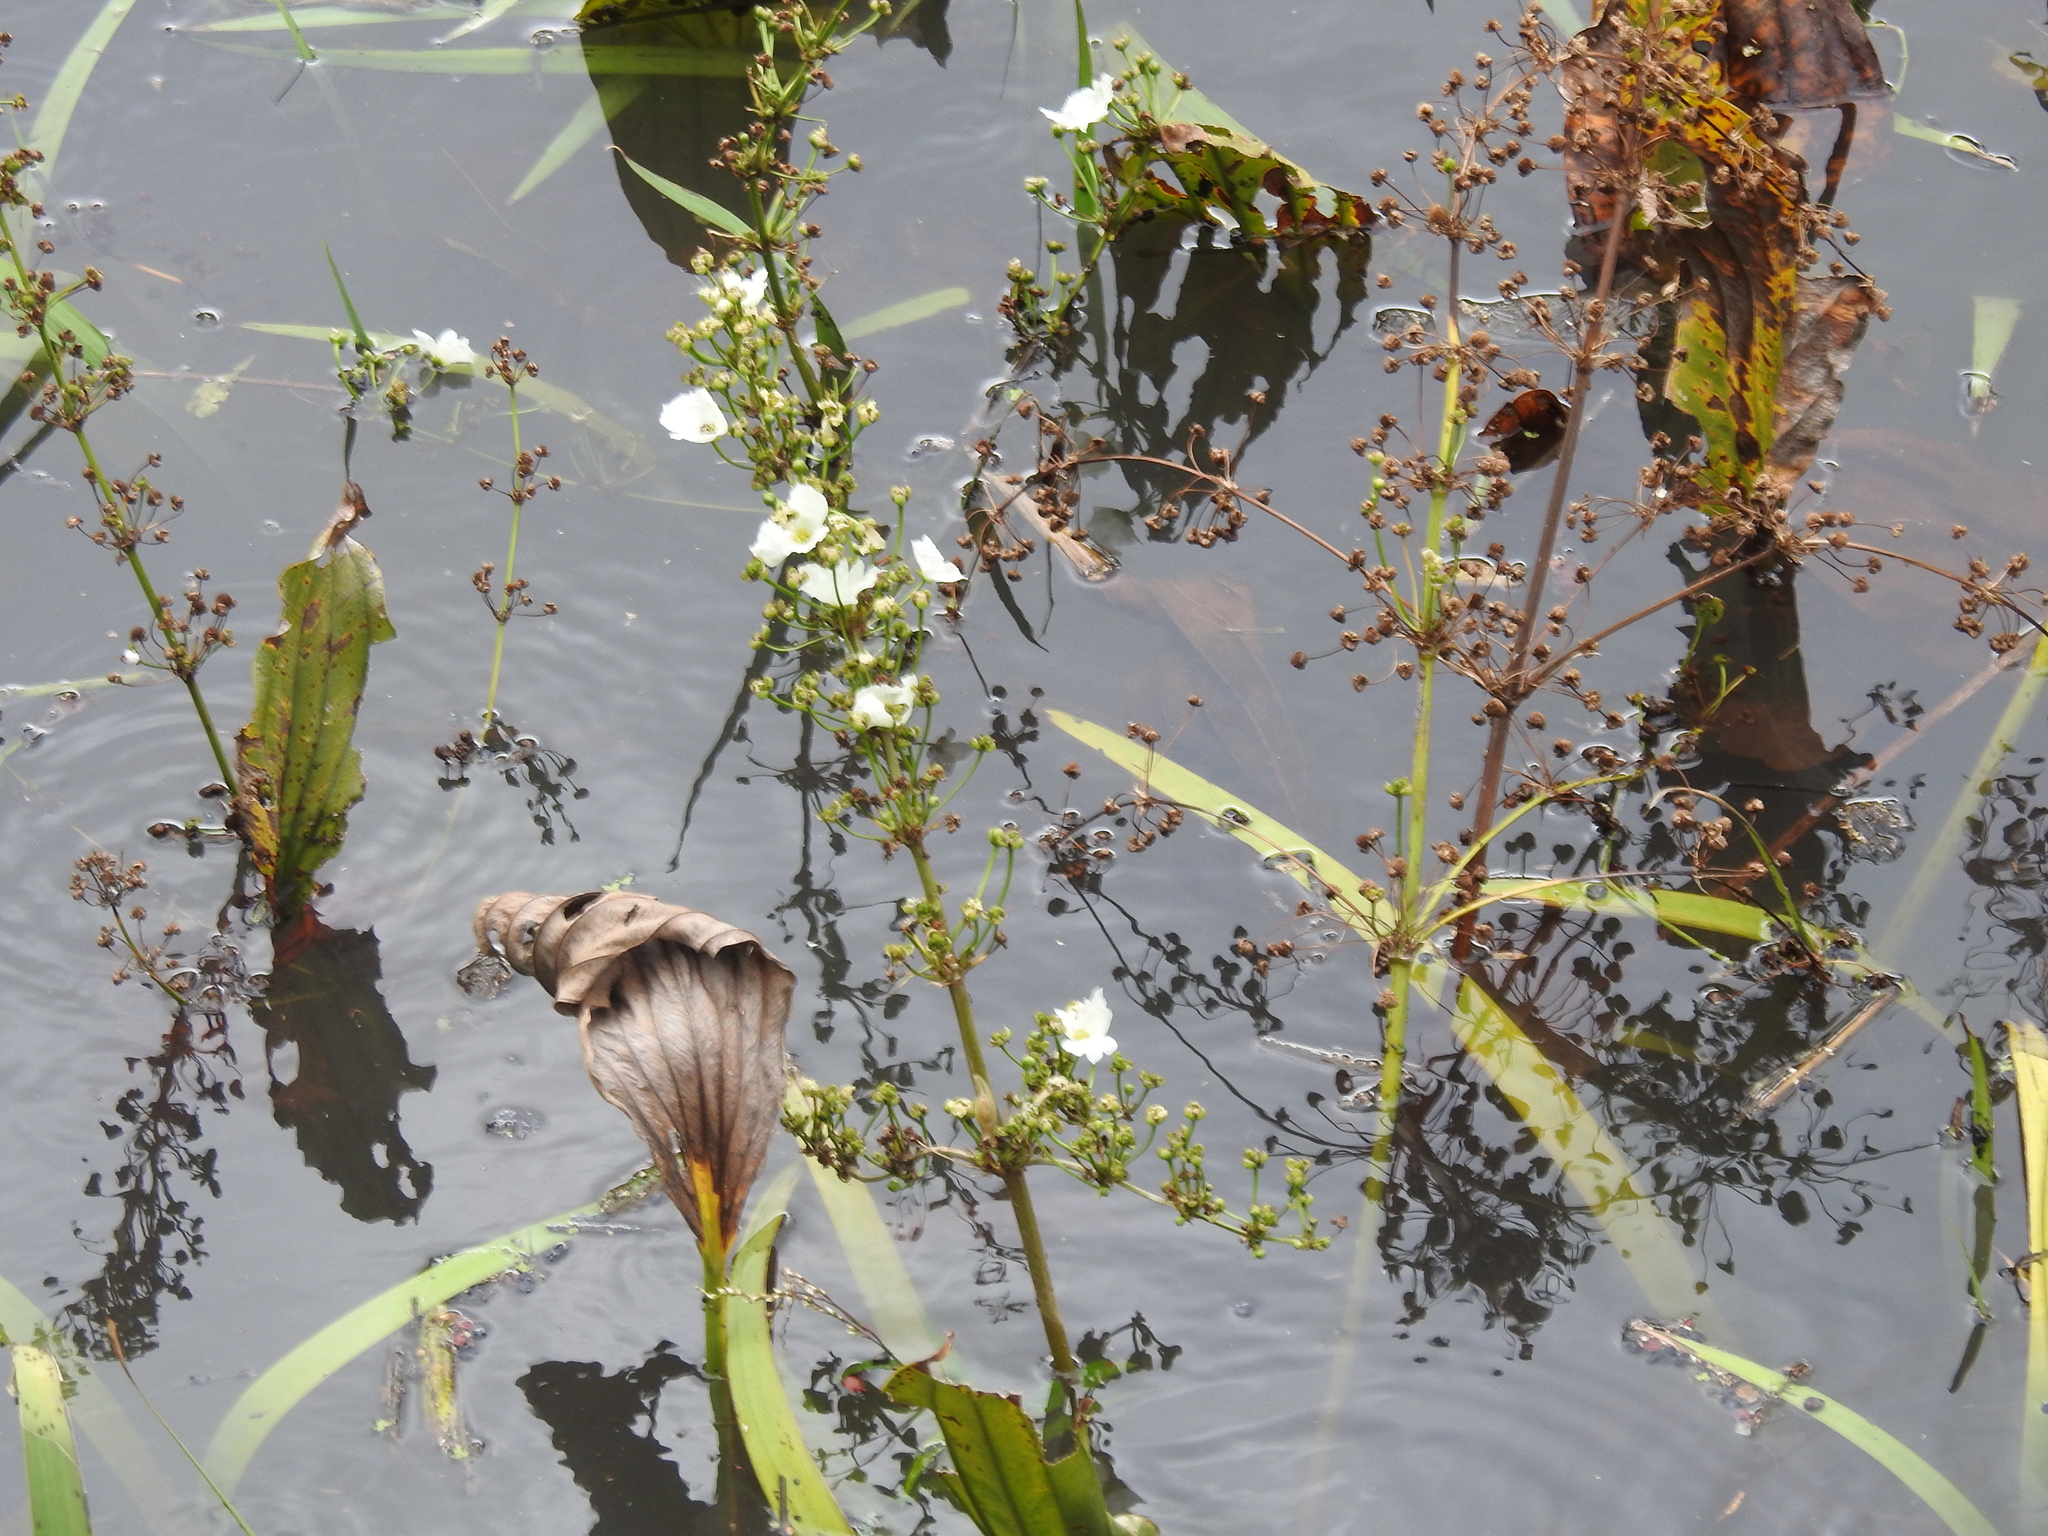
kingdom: Plantae
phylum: Tracheophyta
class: Liliopsida
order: Alismatales
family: Alismataceae
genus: Aquarius
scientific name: Aquarius grandiflorus
